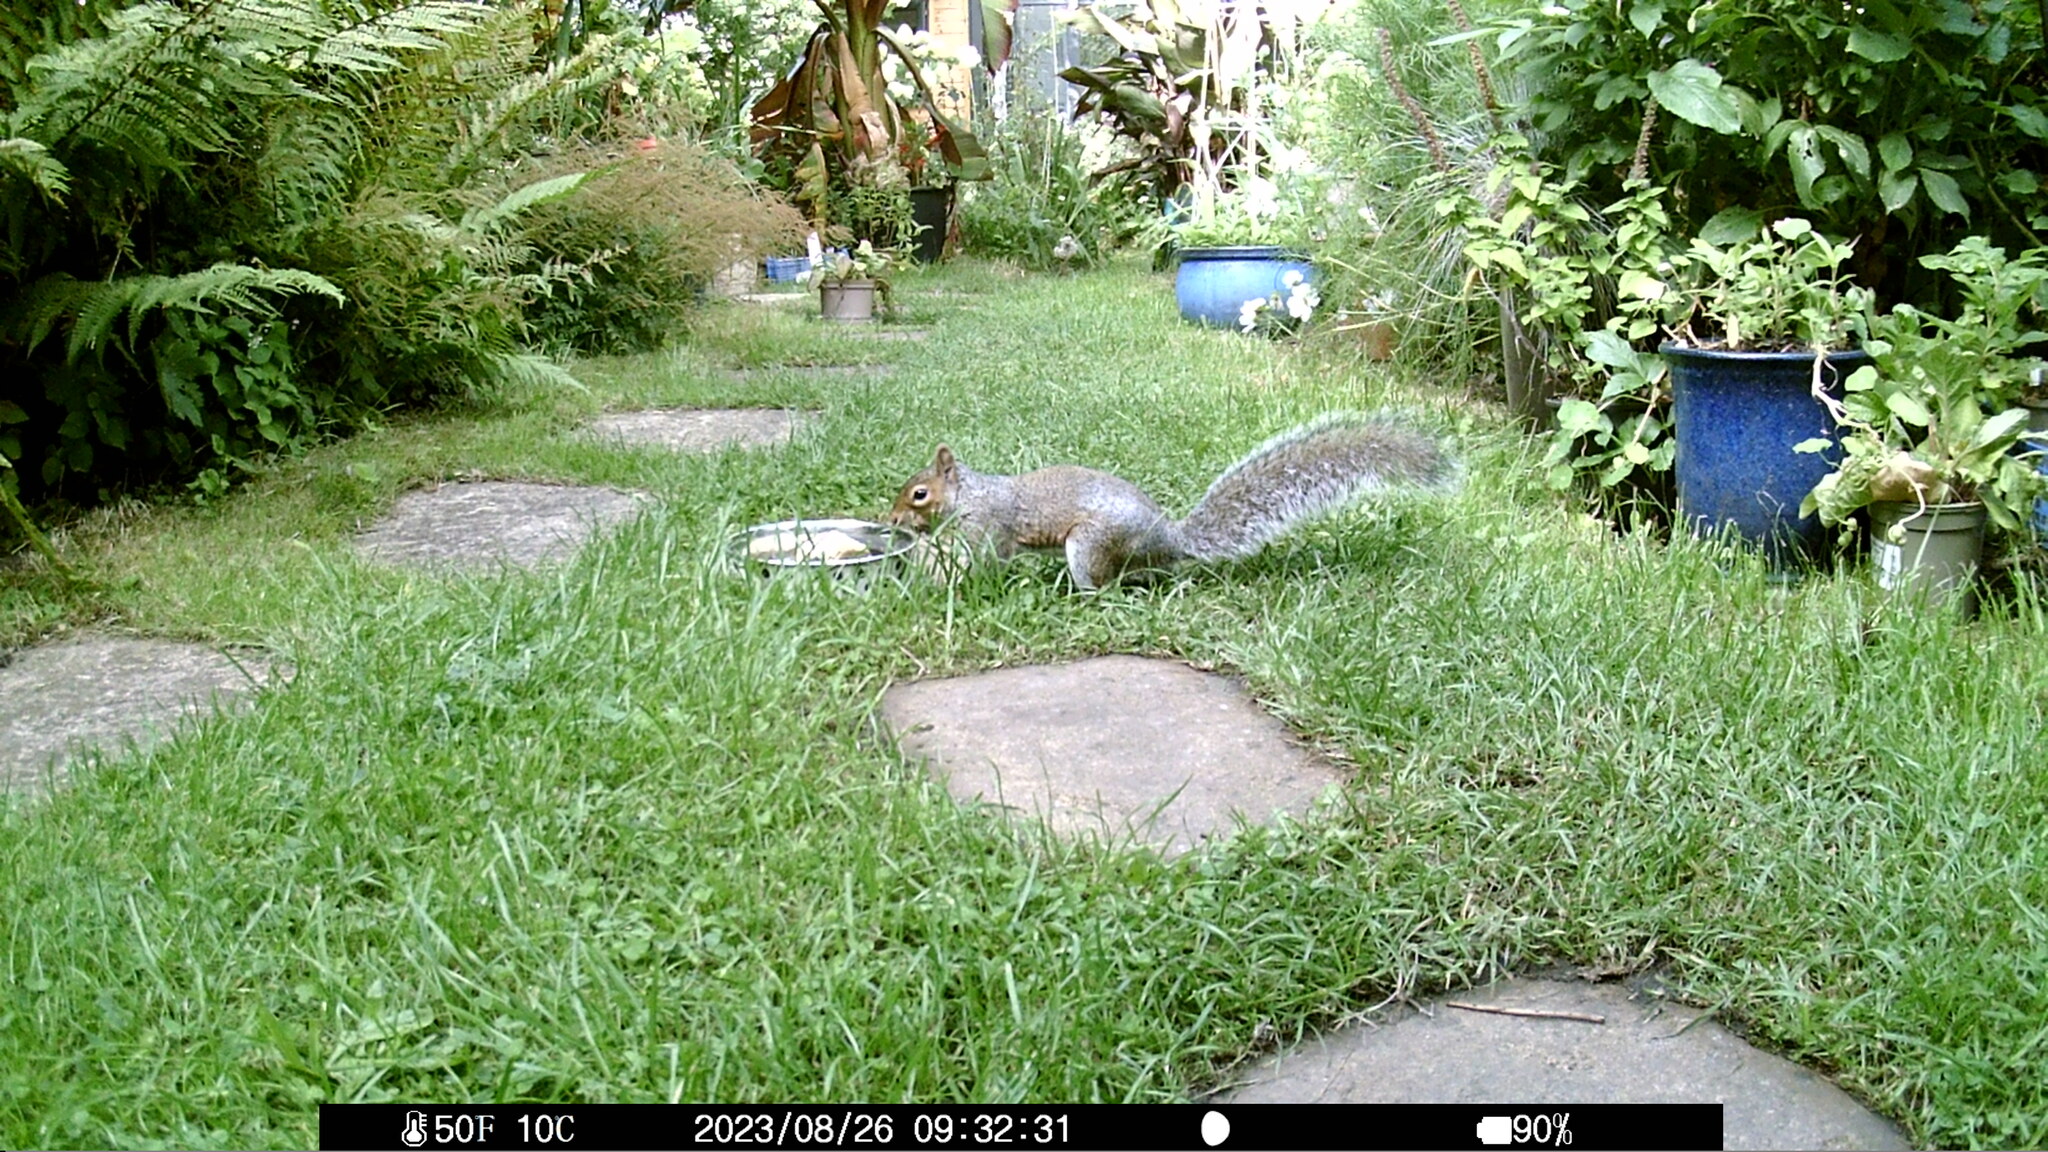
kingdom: Animalia
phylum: Chordata
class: Mammalia
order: Rodentia
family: Sciuridae
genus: Sciurus
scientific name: Sciurus carolinensis
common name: Eastern gray squirrel
